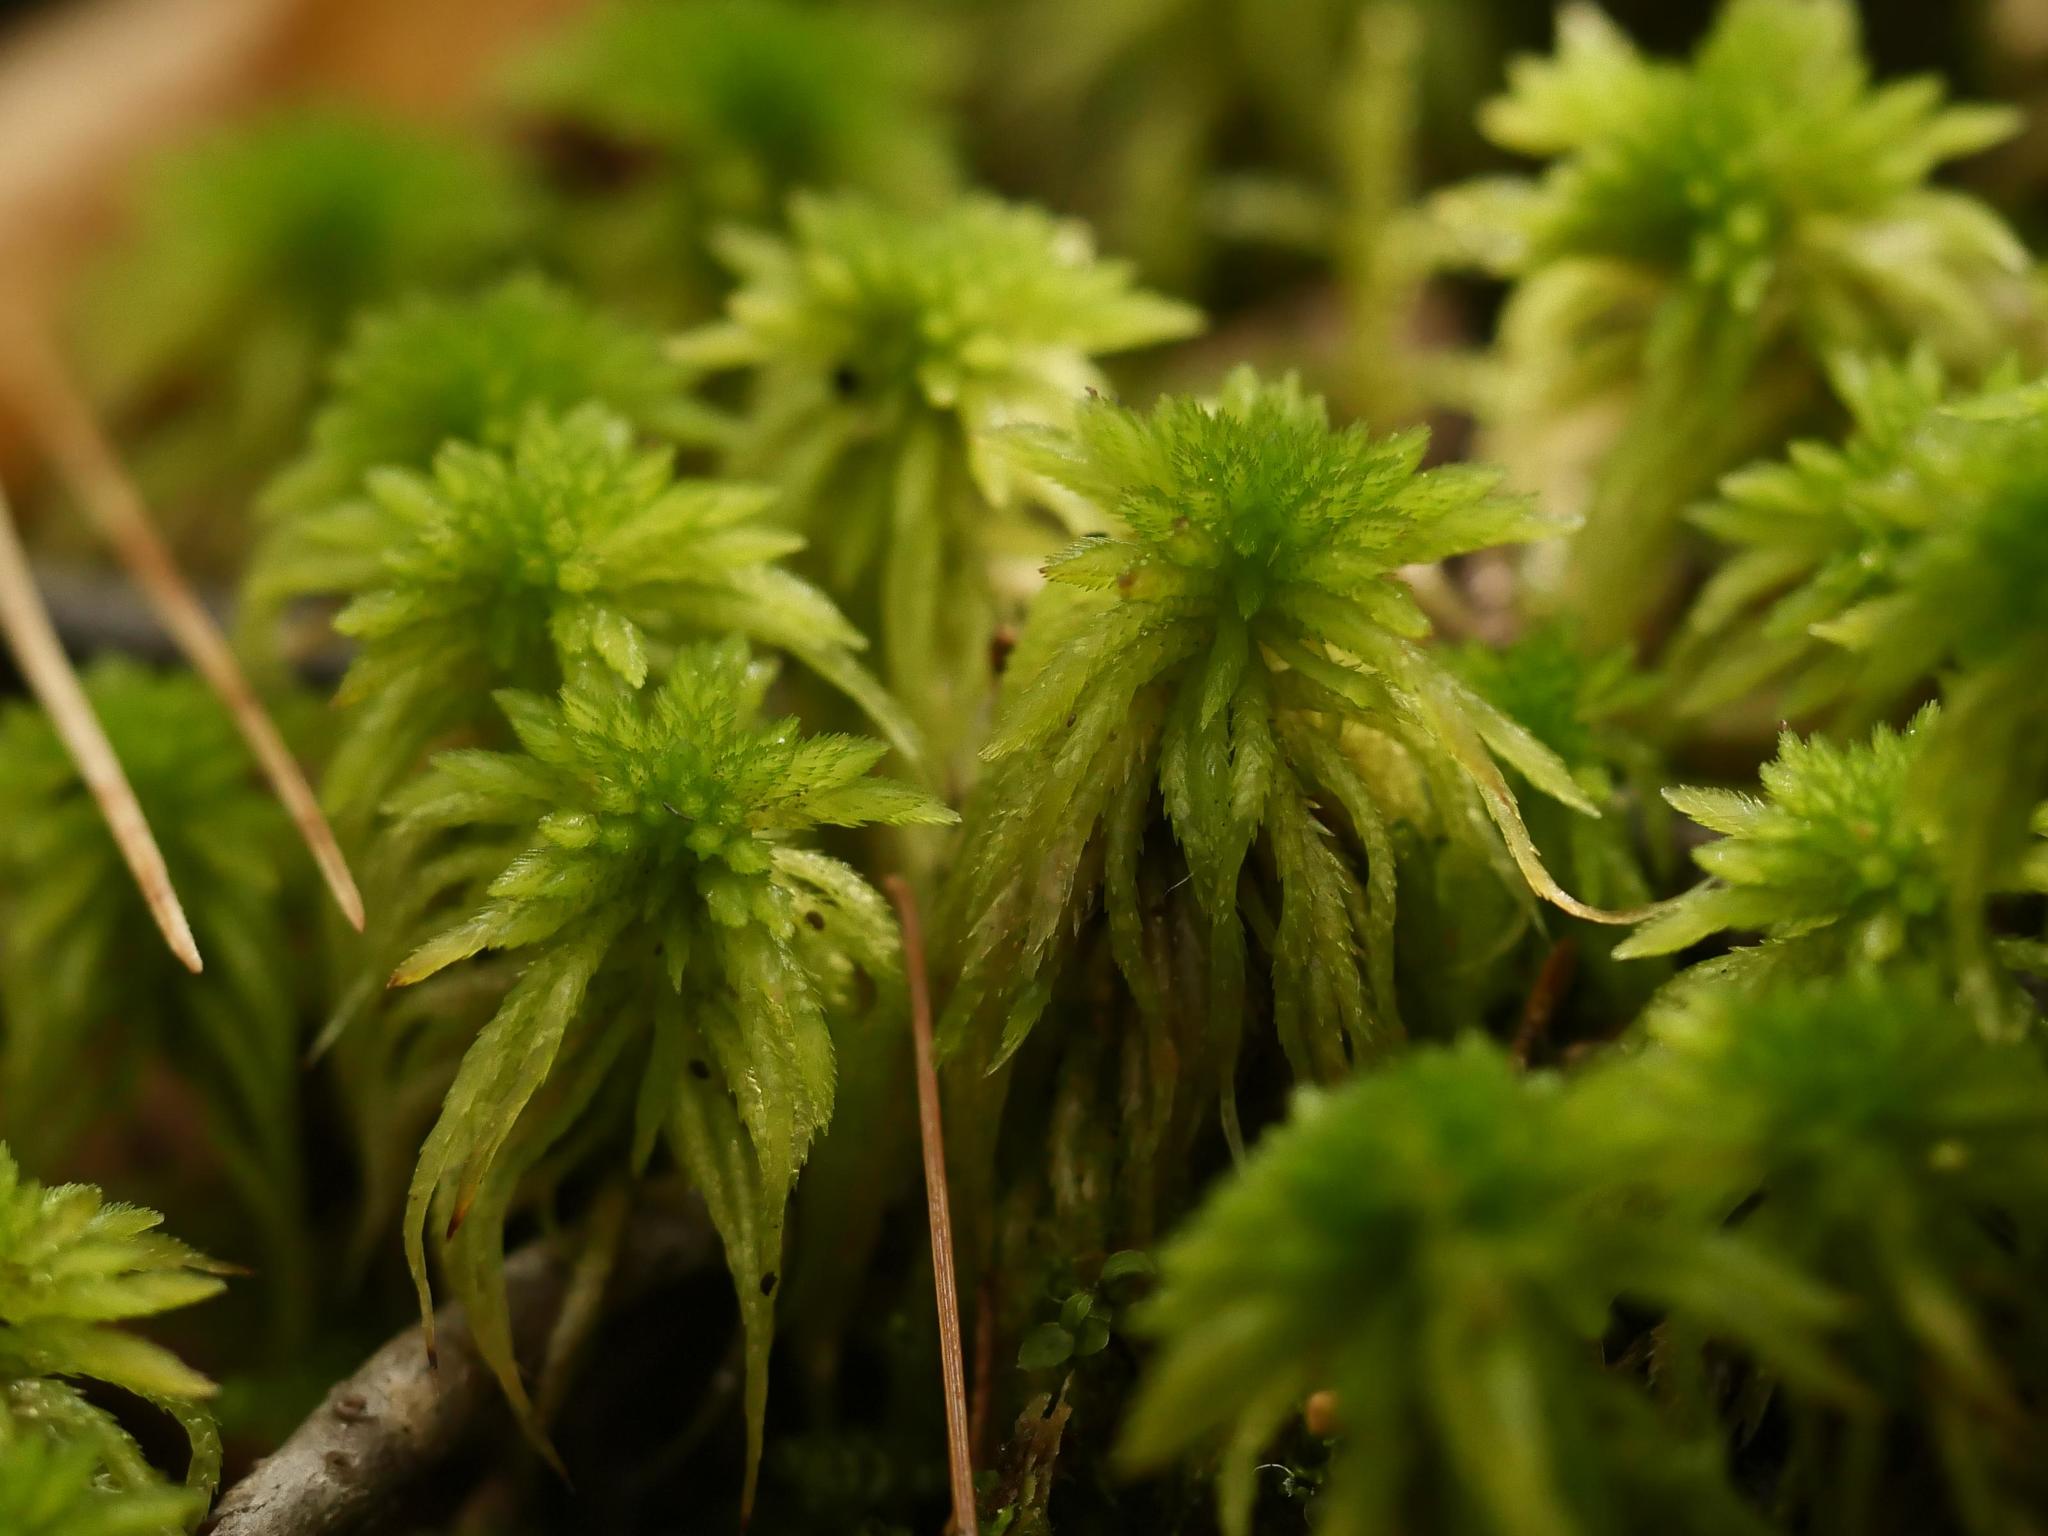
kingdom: Plantae
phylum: Bryophyta
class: Sphagnopsida
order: Sphagnales
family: Sphagnaceae
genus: Sphagnum
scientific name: Sphagnum girgensohnii
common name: Girgensohn's peat moss
